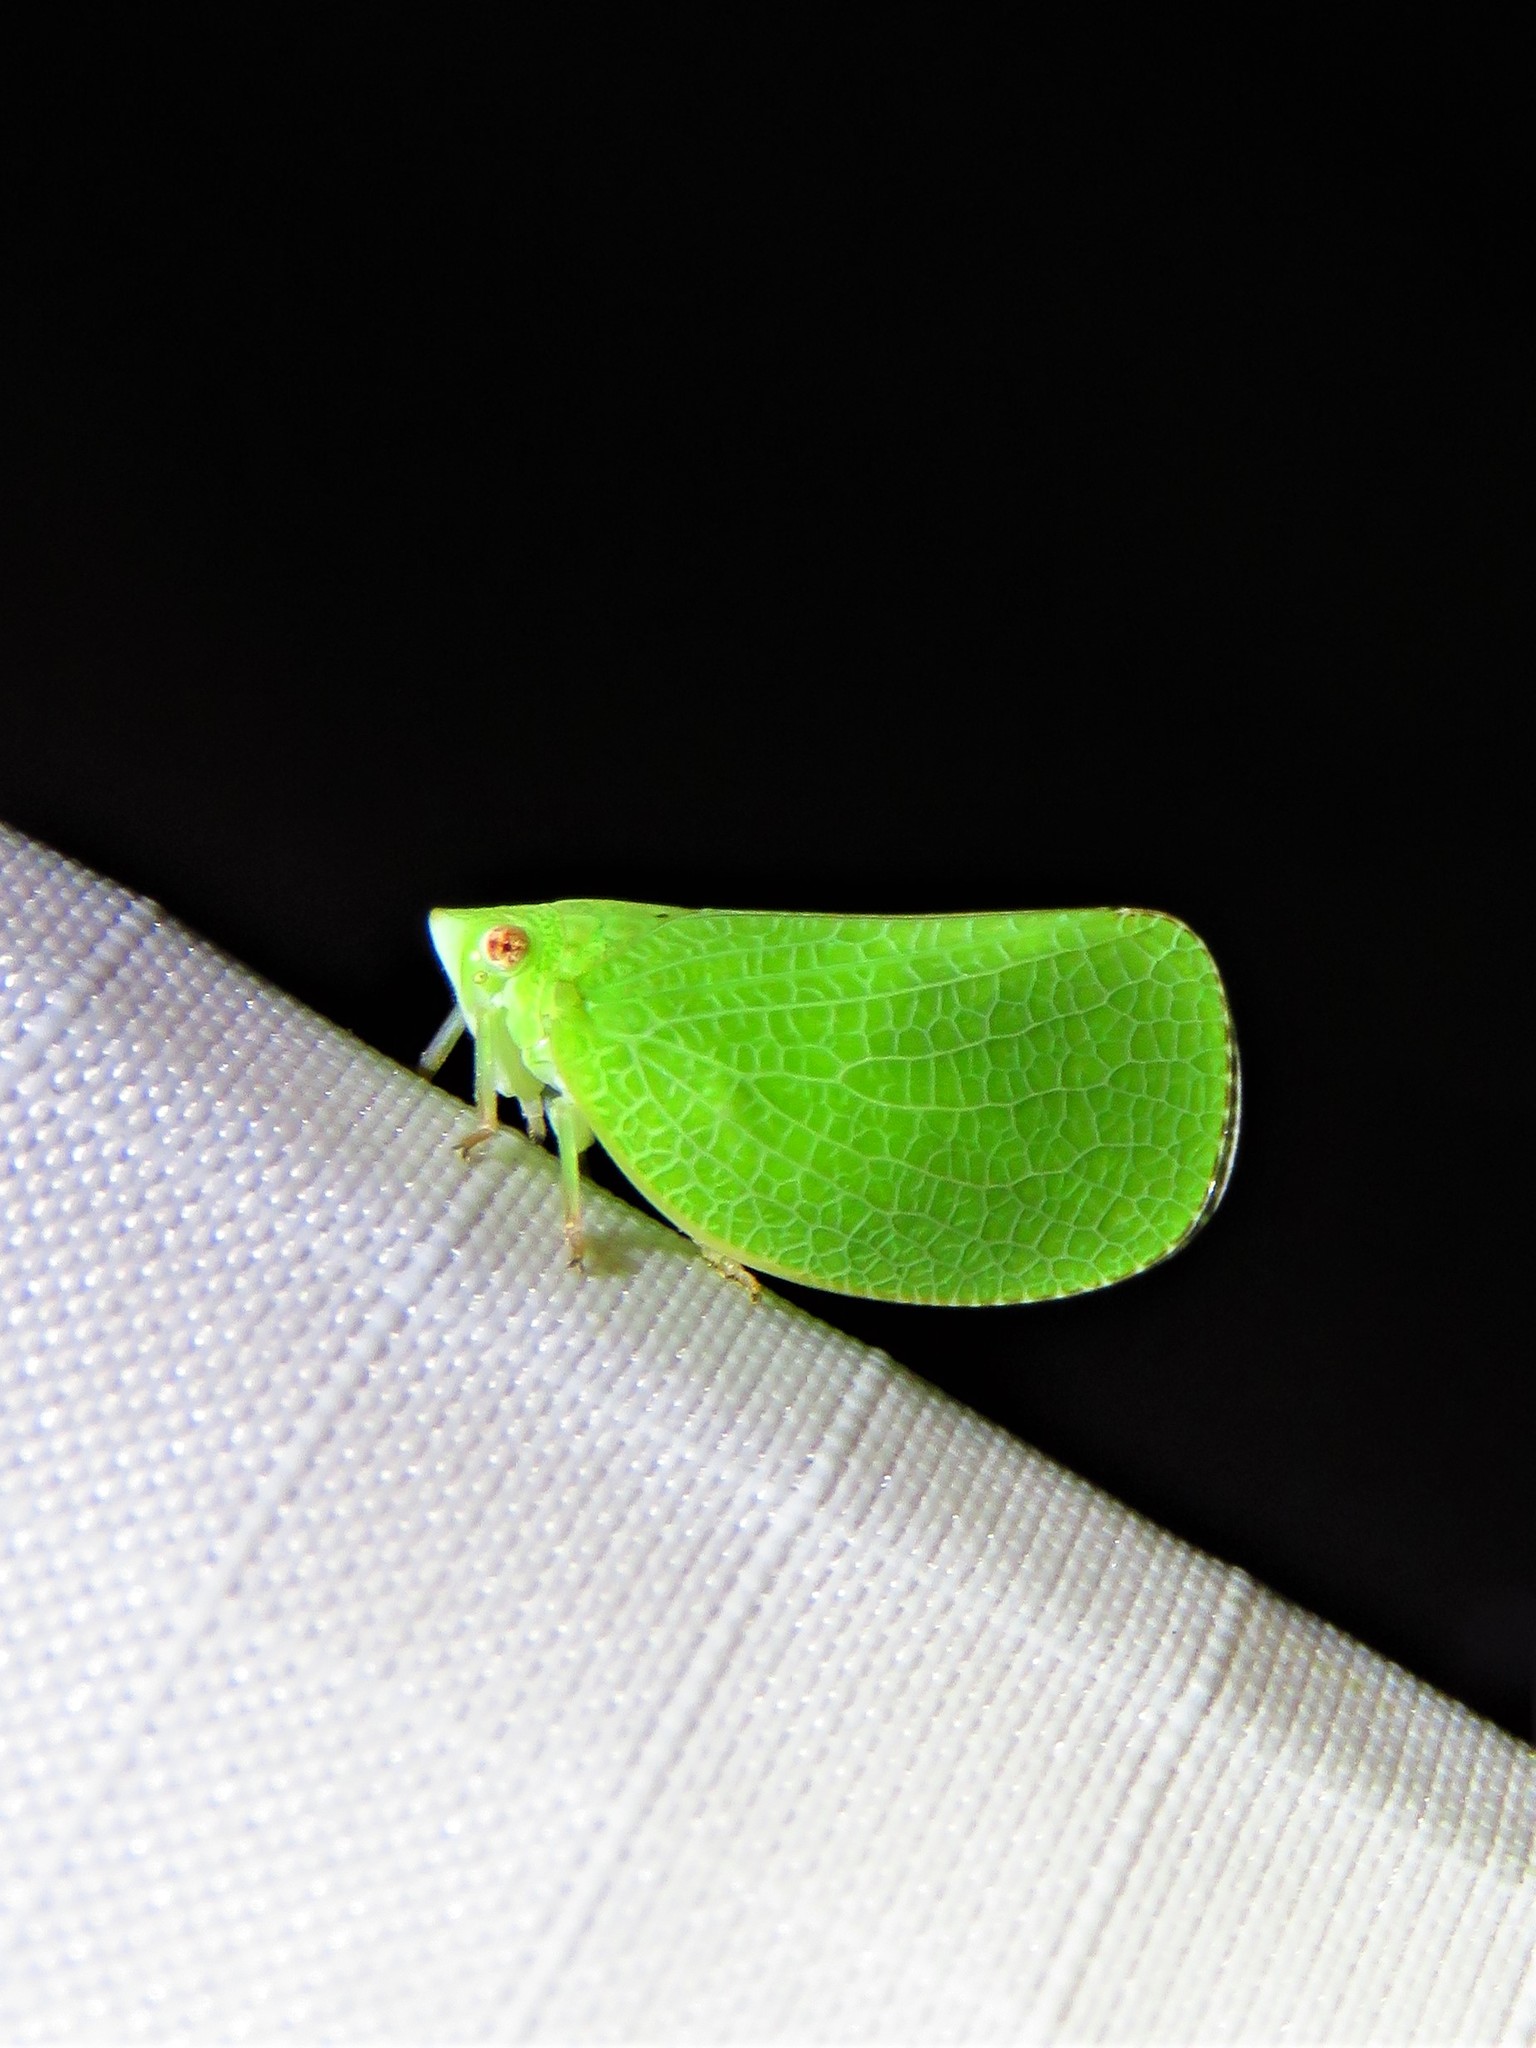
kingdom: Animalia
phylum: Arthropoda
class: Insecta
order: Hemiptera
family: Acanaloniidae
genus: Acanalonia
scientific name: Acanalonia conica
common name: Green cone-headed planthopper
